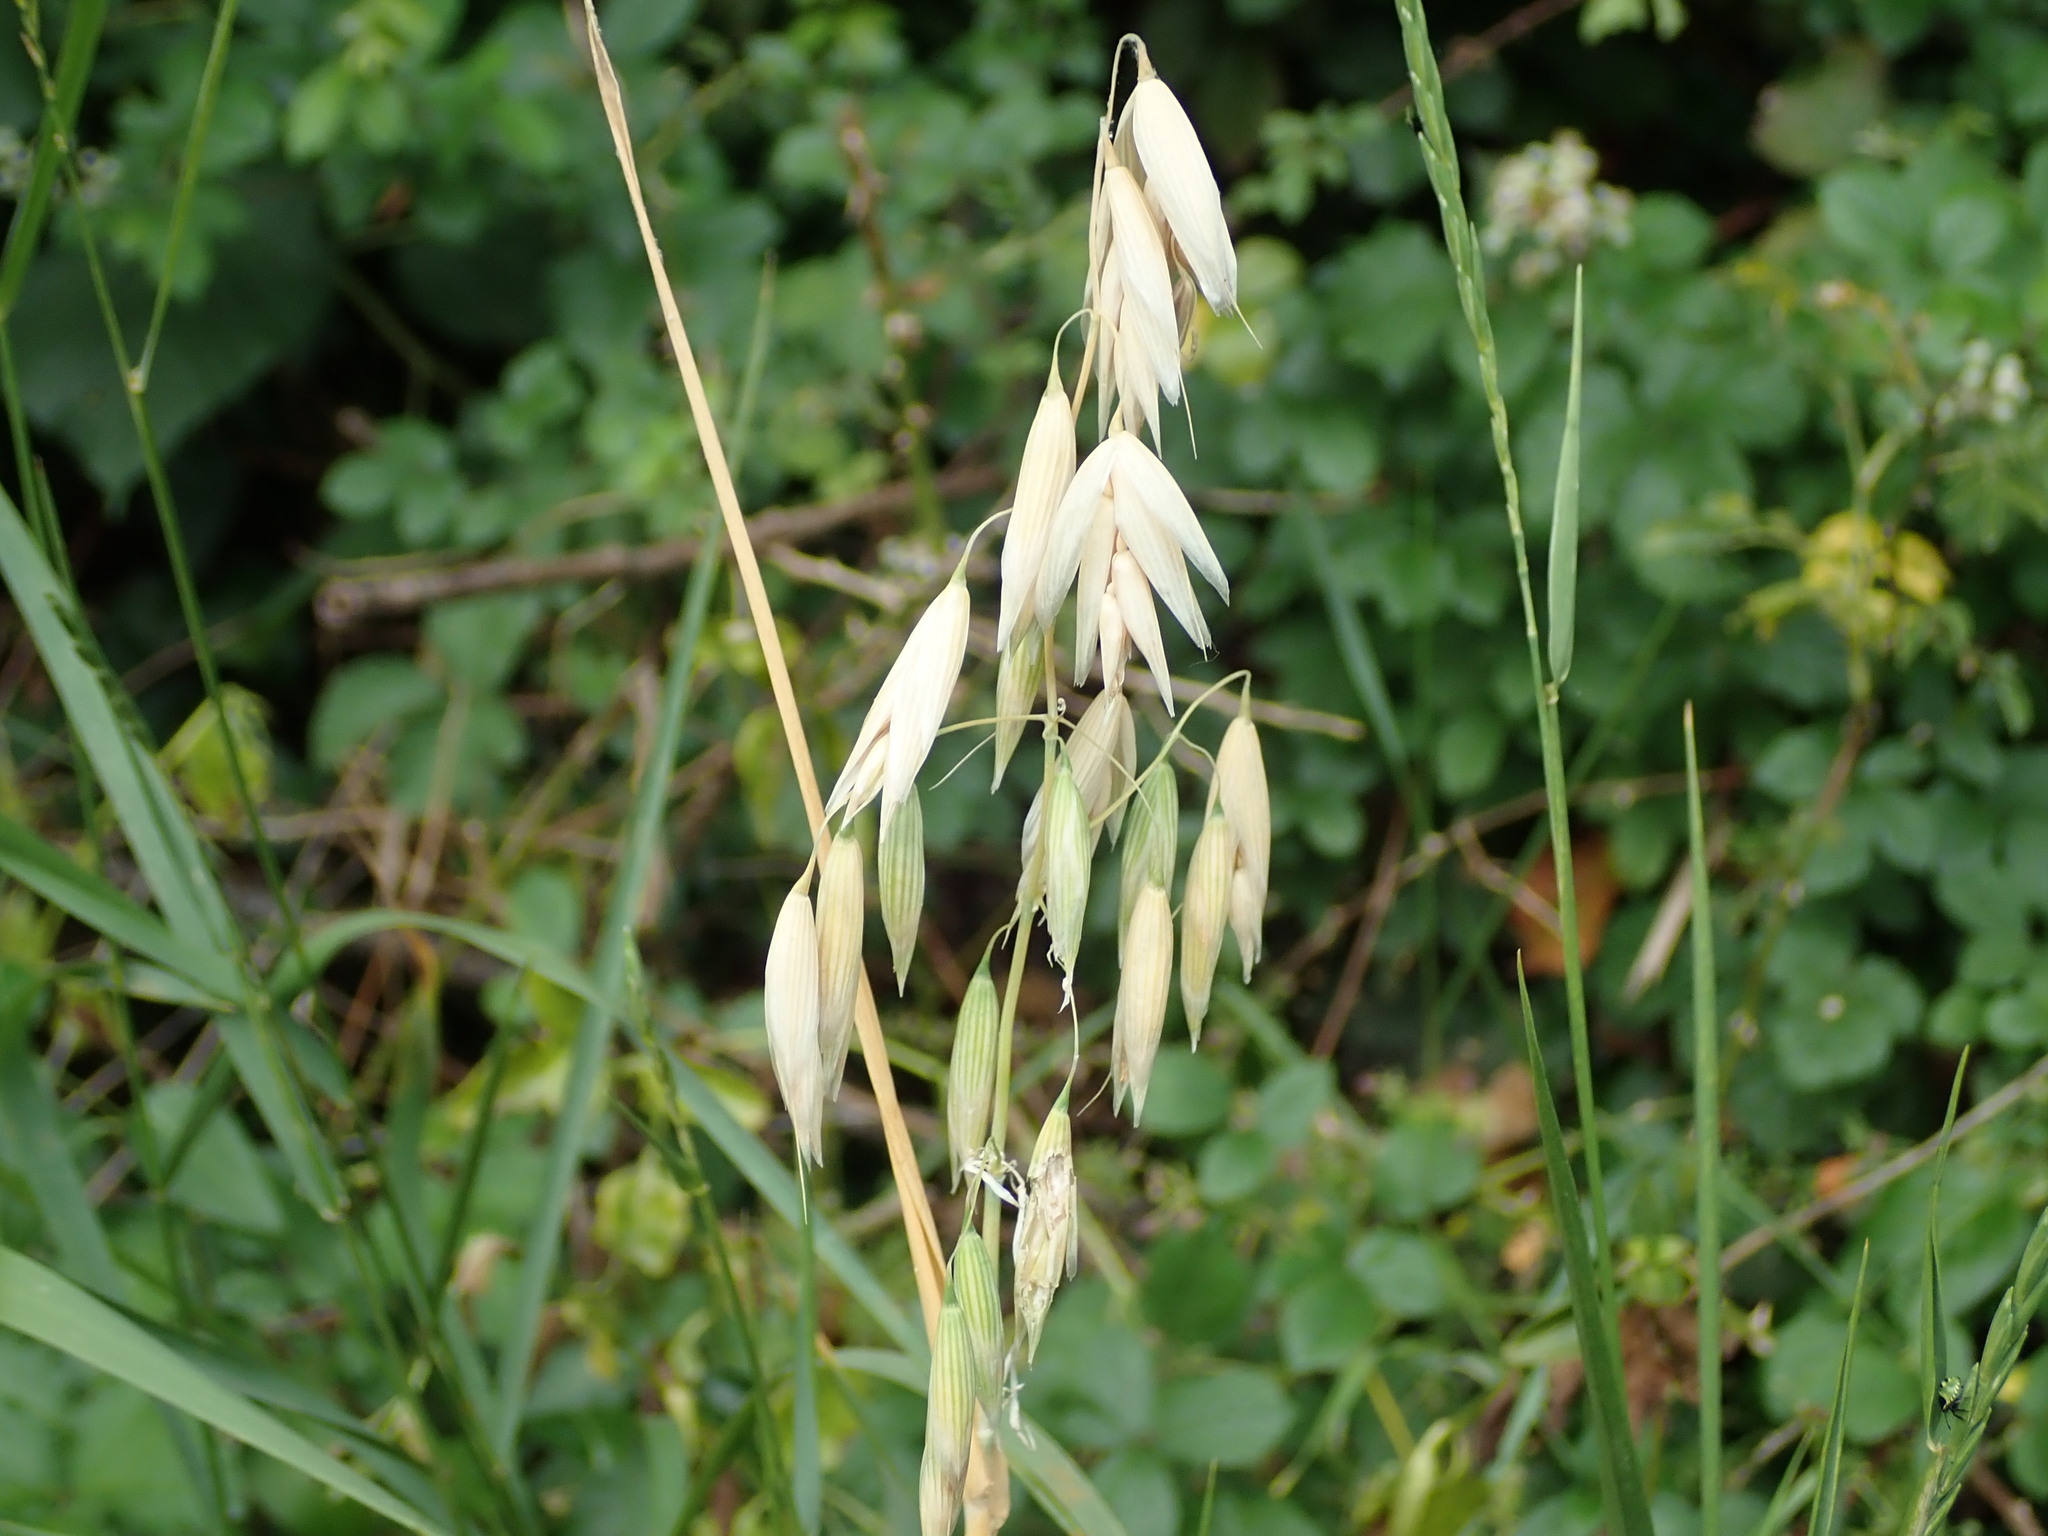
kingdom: Plantae
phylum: Tracheophyta
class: Liliopsida
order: Poales
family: Poaceae
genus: Avena
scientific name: Avena sativa
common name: Oat
